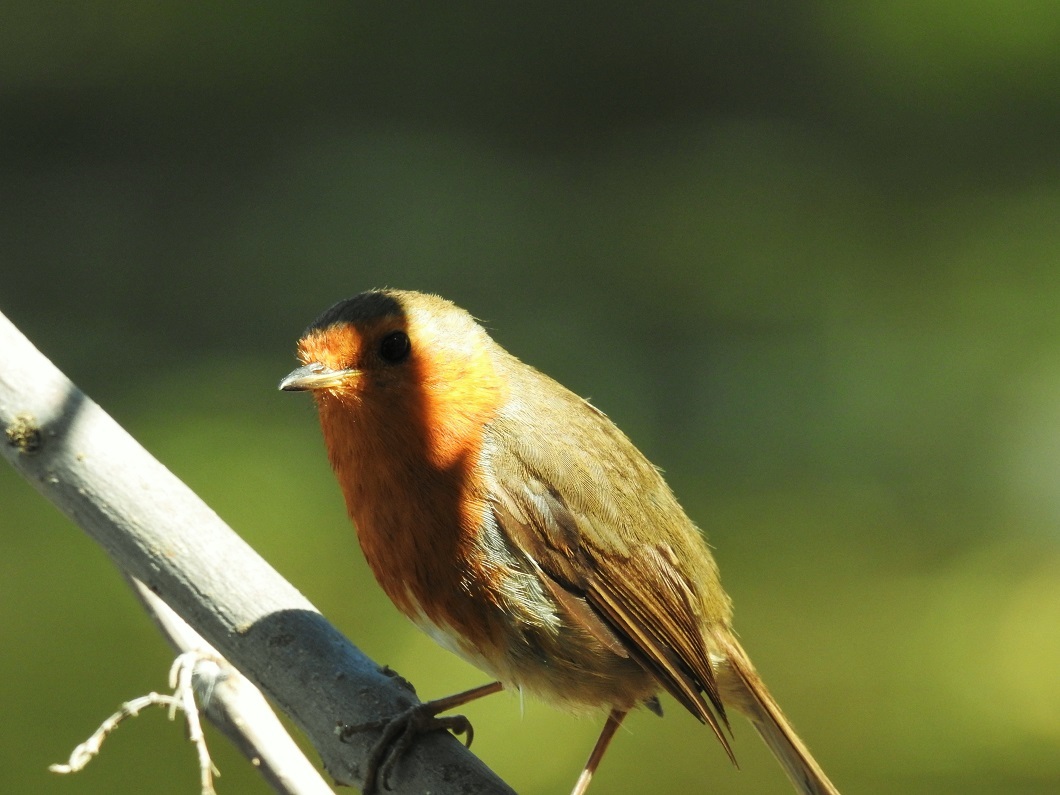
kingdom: Animalia
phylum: Chordata
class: Aves
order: Passeriformes
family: Muscicapidae
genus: Erithacus
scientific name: Erithacus rubecula
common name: European robin
